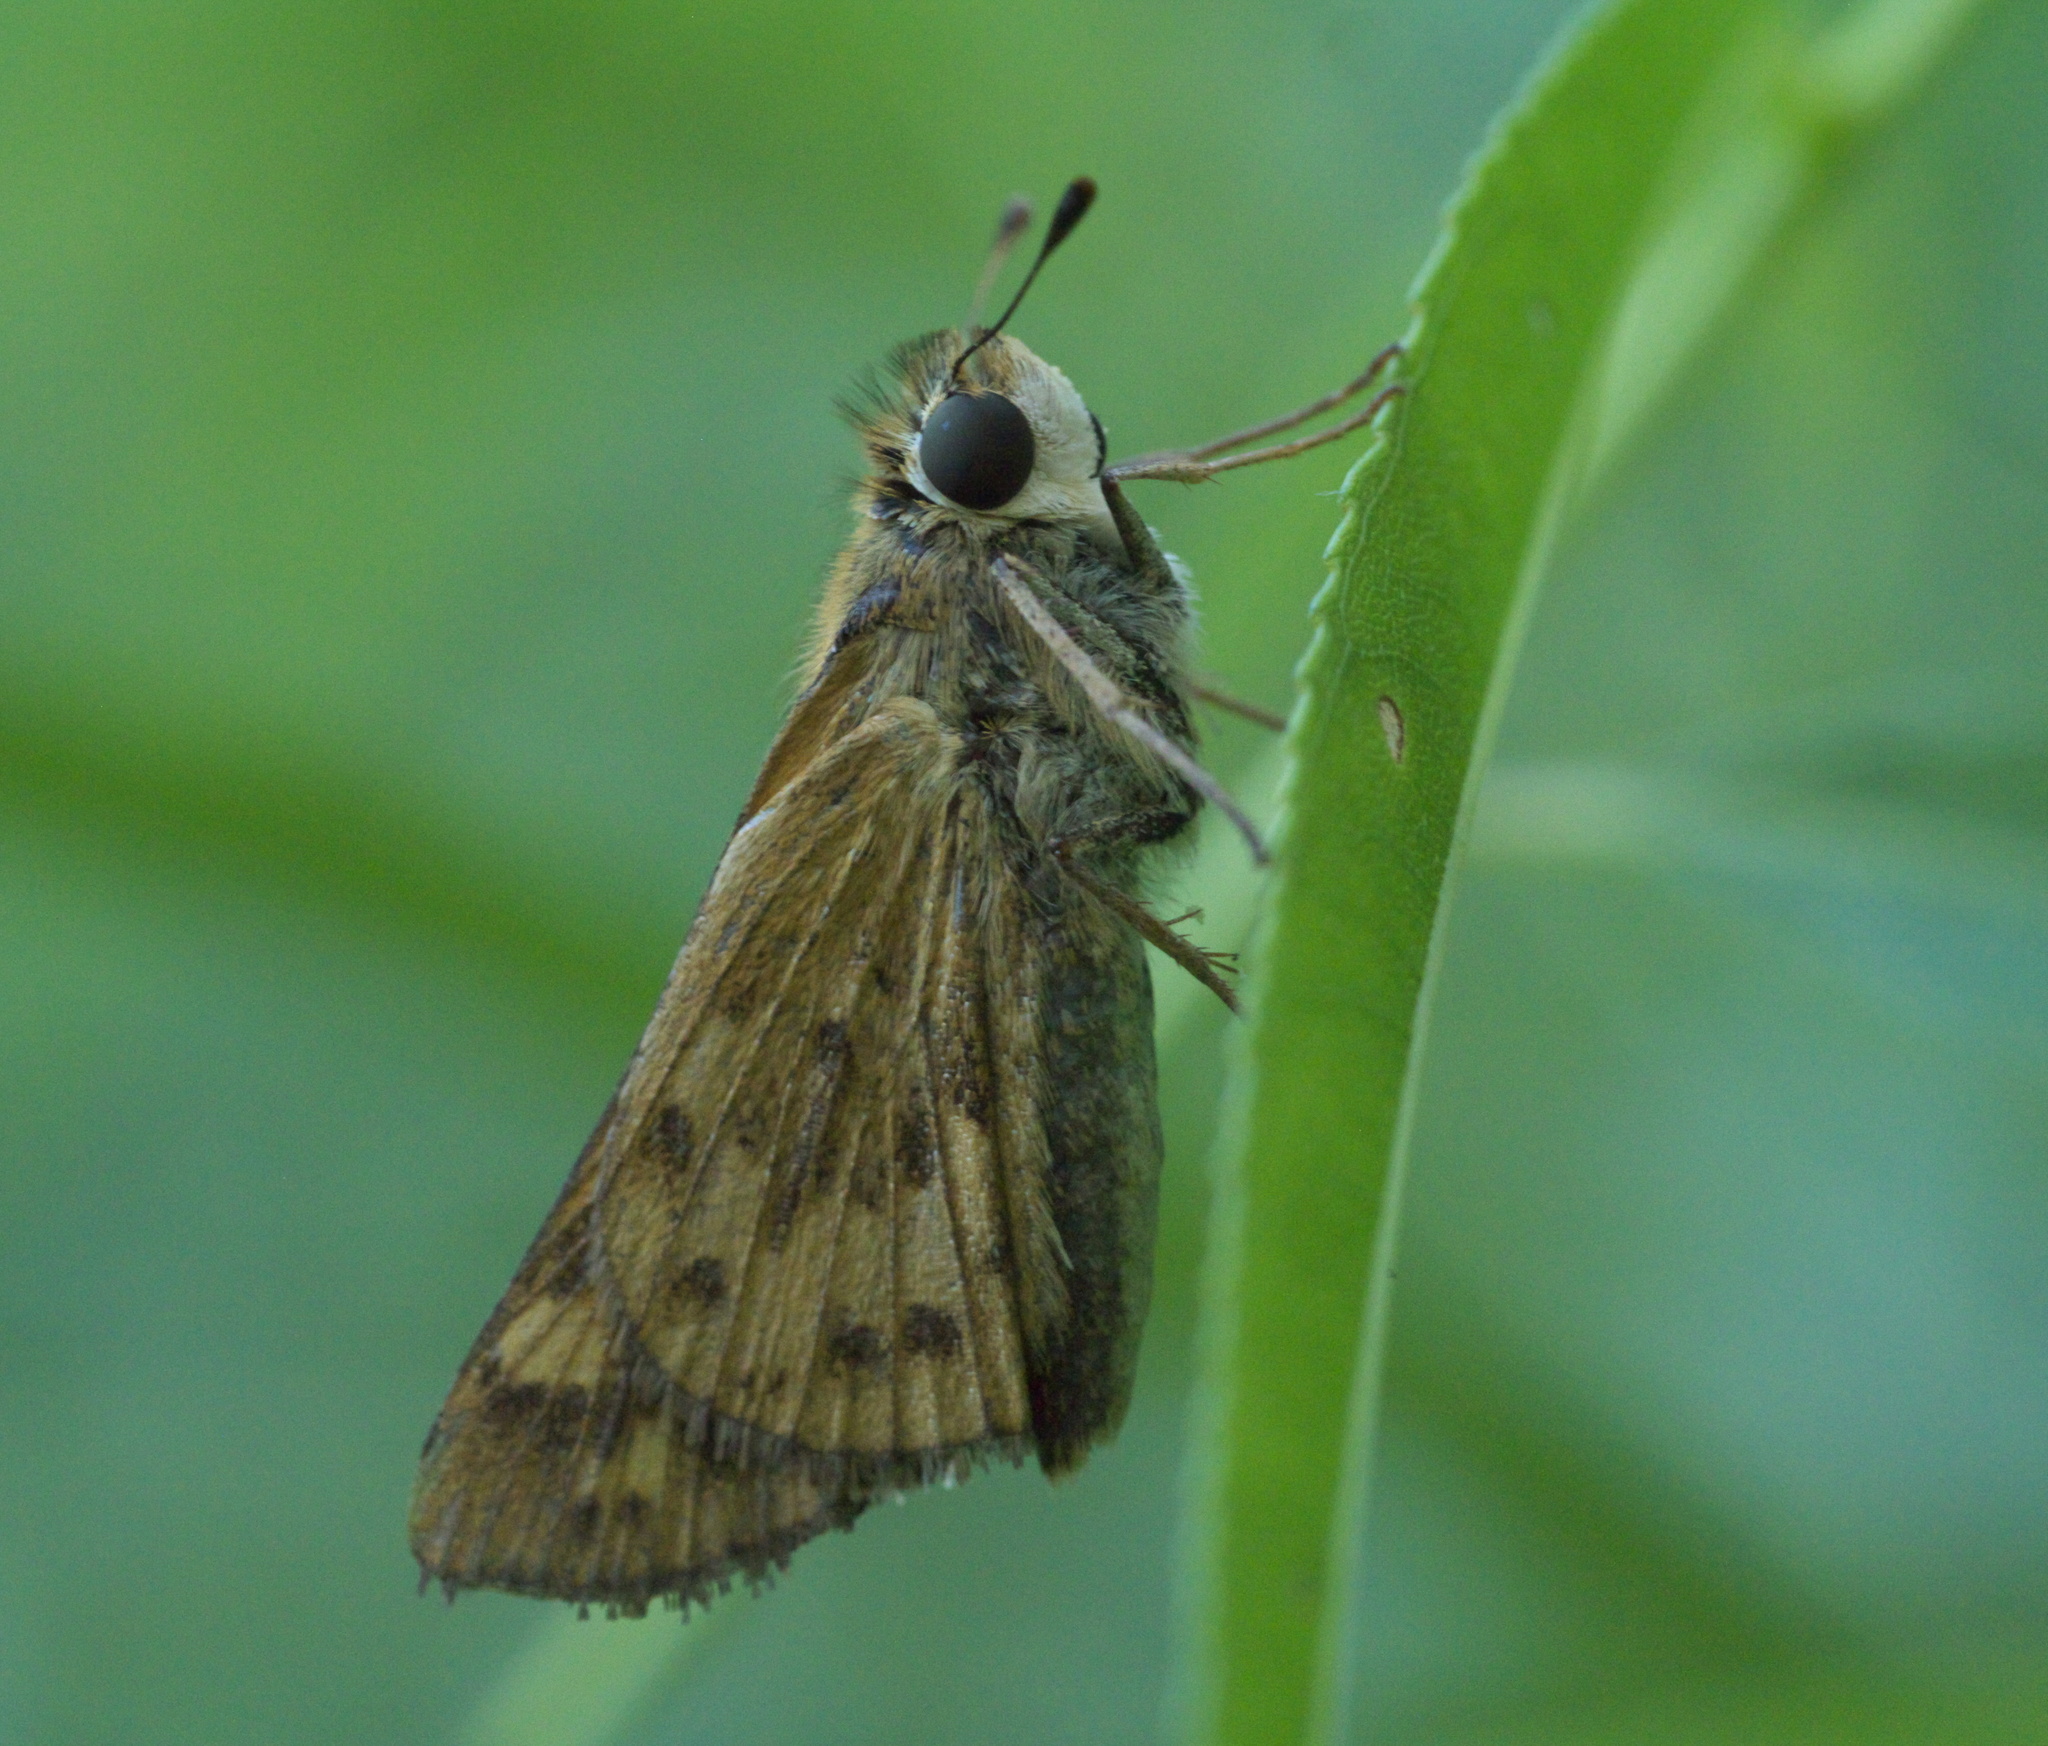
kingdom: Animalia
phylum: Arthropoda
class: Insecta
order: Lepidoptera
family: Hesperiidae
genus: Hylephila
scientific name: Hylephila phyleus
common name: Fiery skipper
